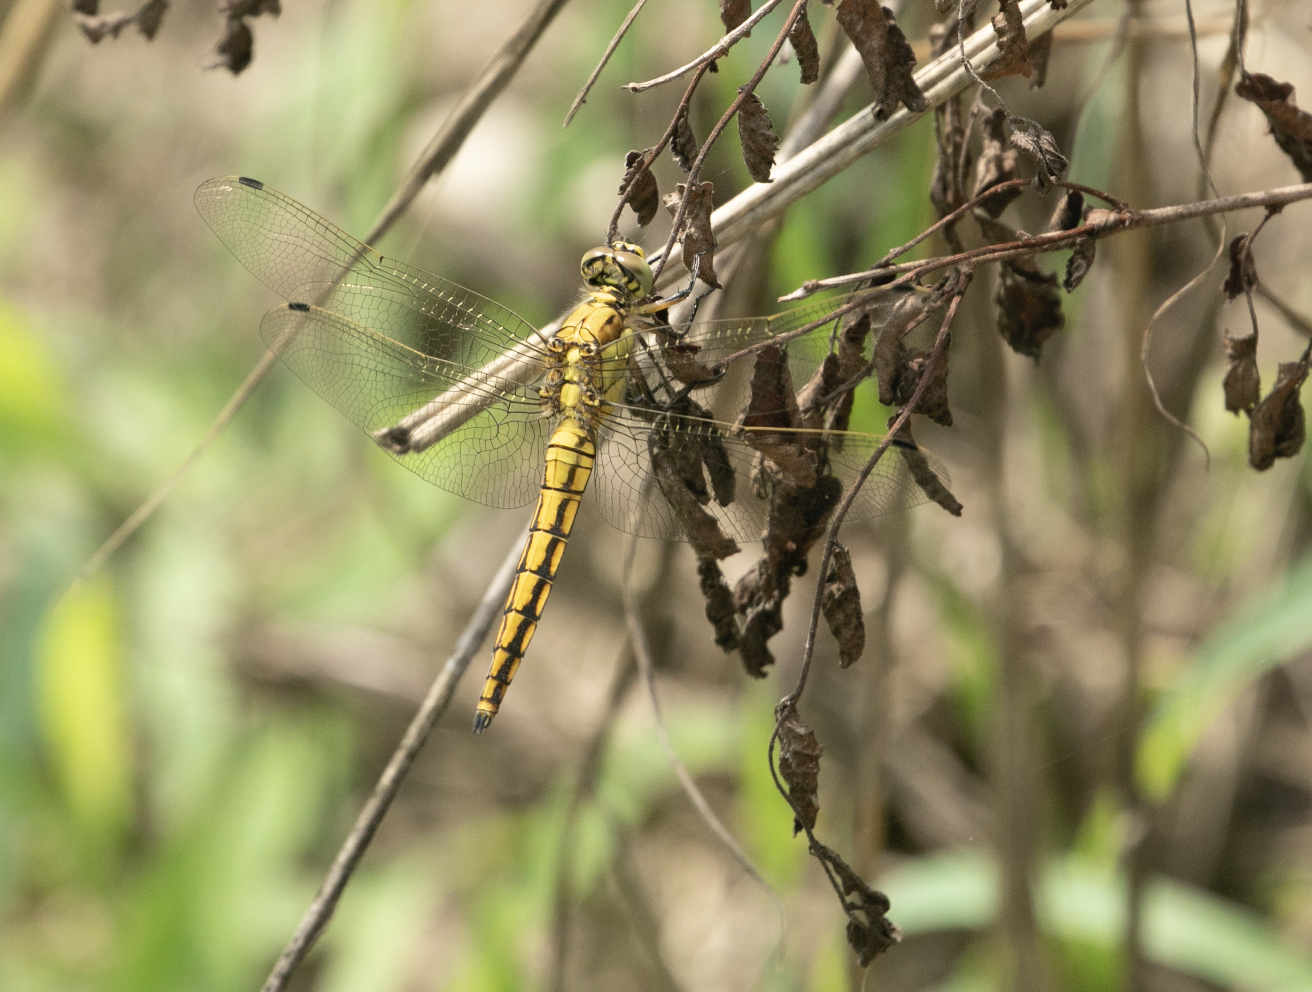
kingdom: Animalia
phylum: Arthropoda
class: Insecta
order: Odonata
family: Libellulidae
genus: Orthetrum
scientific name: Orthetrum cancellatum
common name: Black-tailed skimmer
